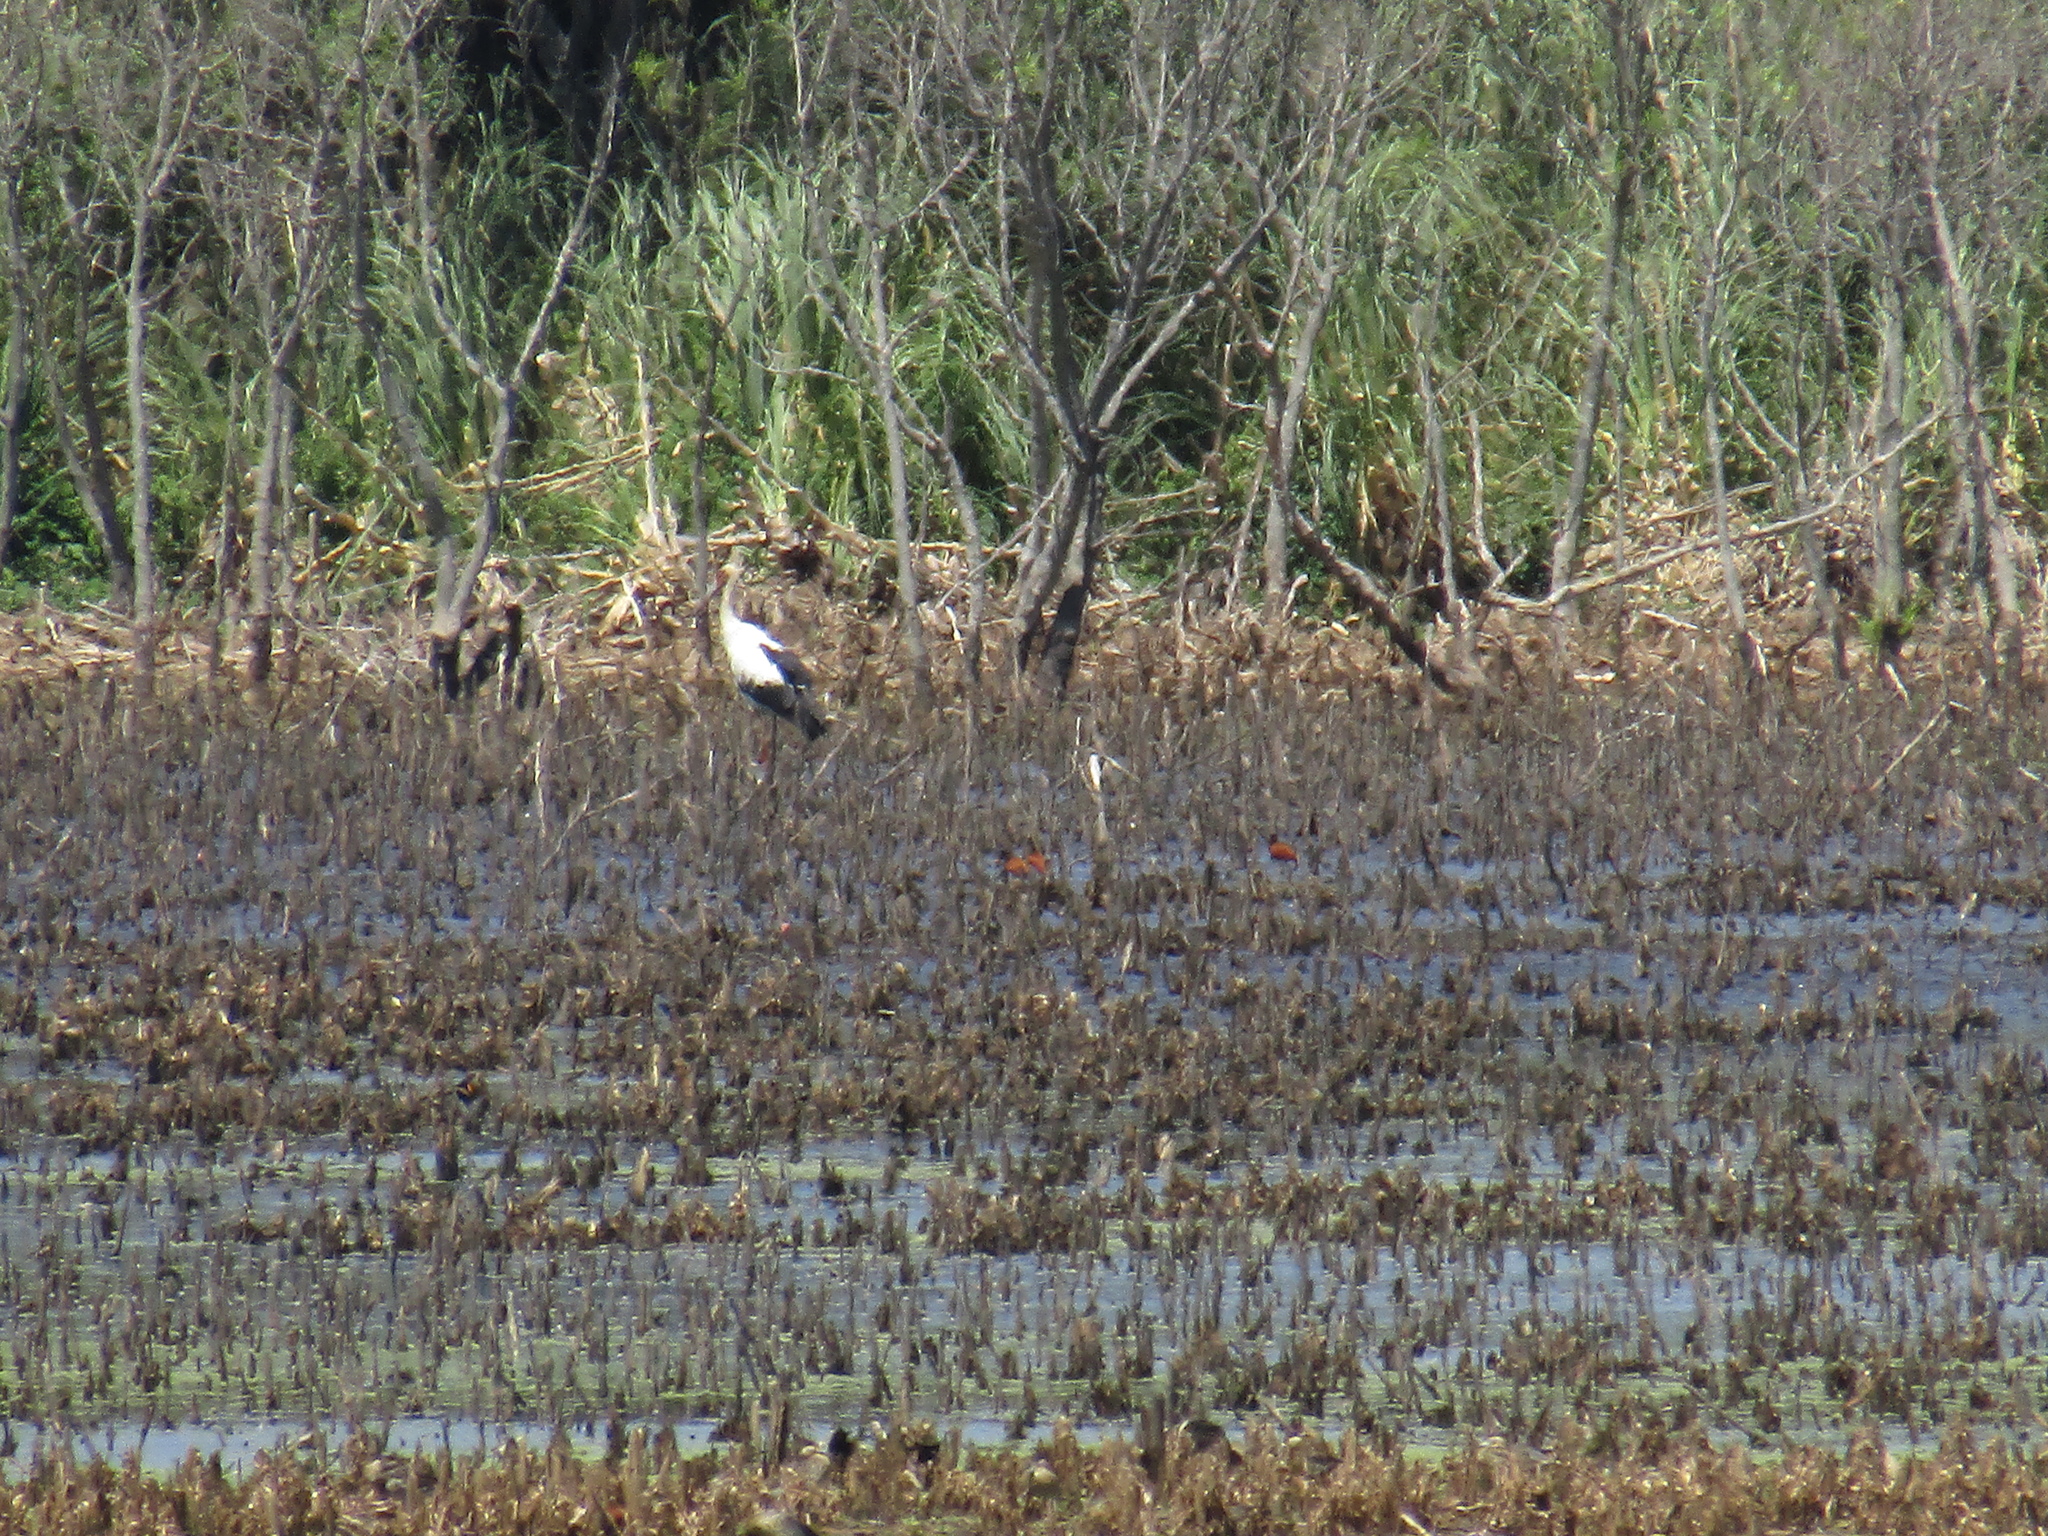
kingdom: Animalia
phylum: Chordata
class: Aves
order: Ciconiiformes
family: Ciconiidae
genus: Ciconia
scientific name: Ciconia maguari
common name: Maguari stork
